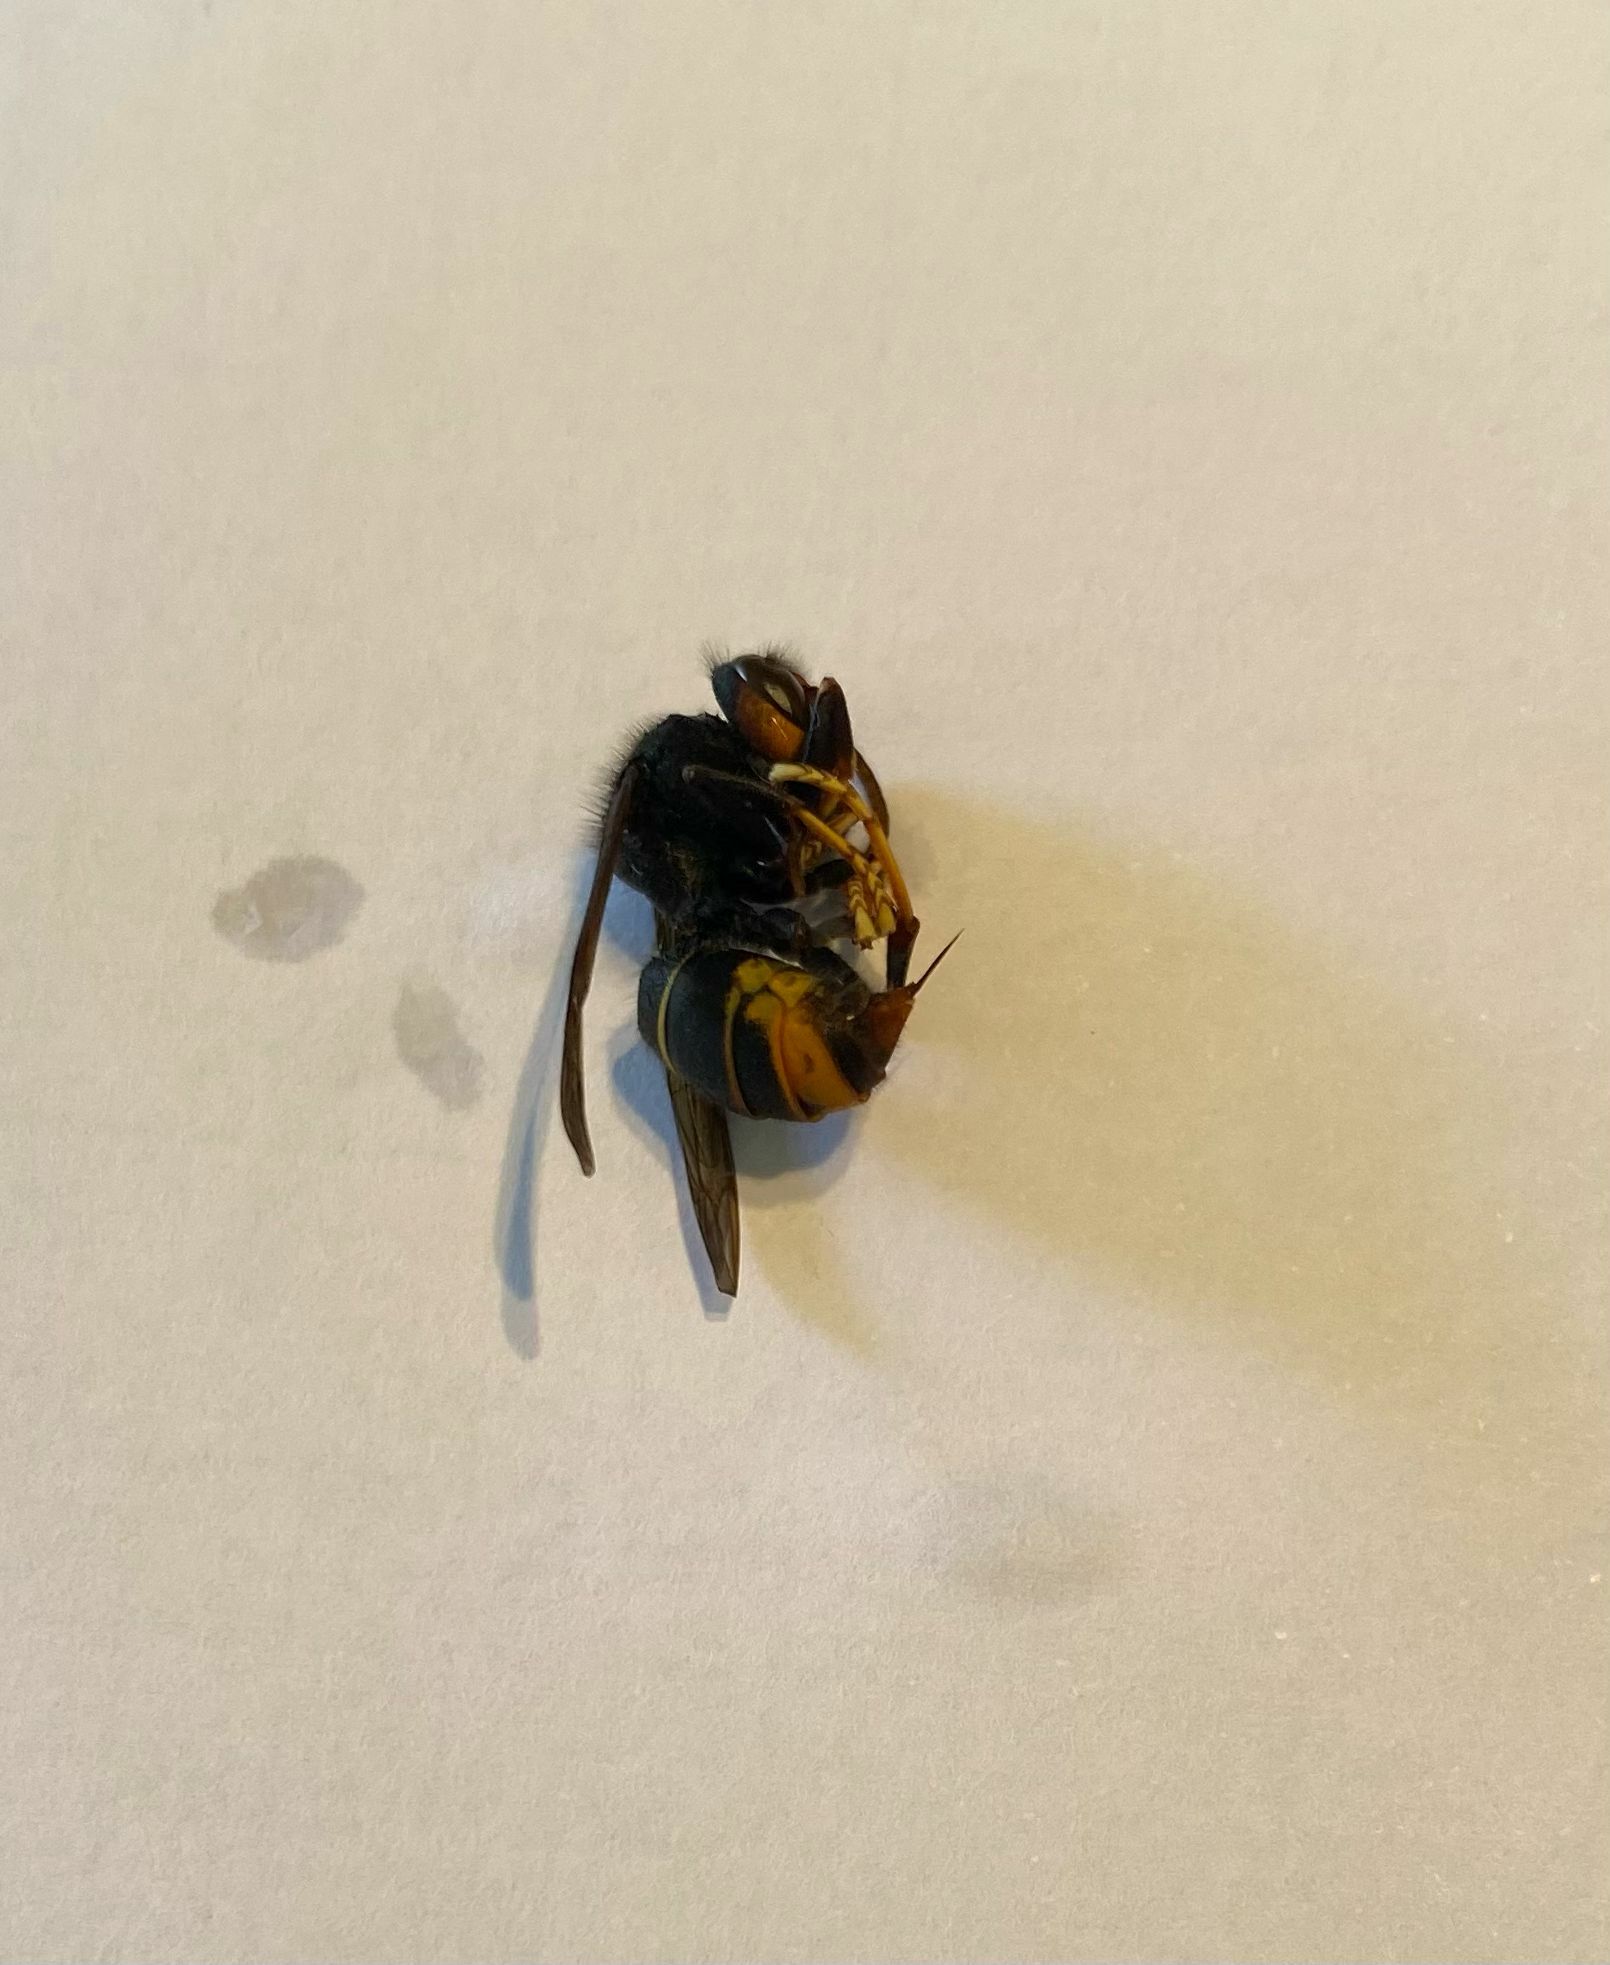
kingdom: Animalia
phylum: Arthropoda
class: Insecta
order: Hymenoptera
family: Vespidae
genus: Vespa
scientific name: Vespa velutina
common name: Asian hornet
